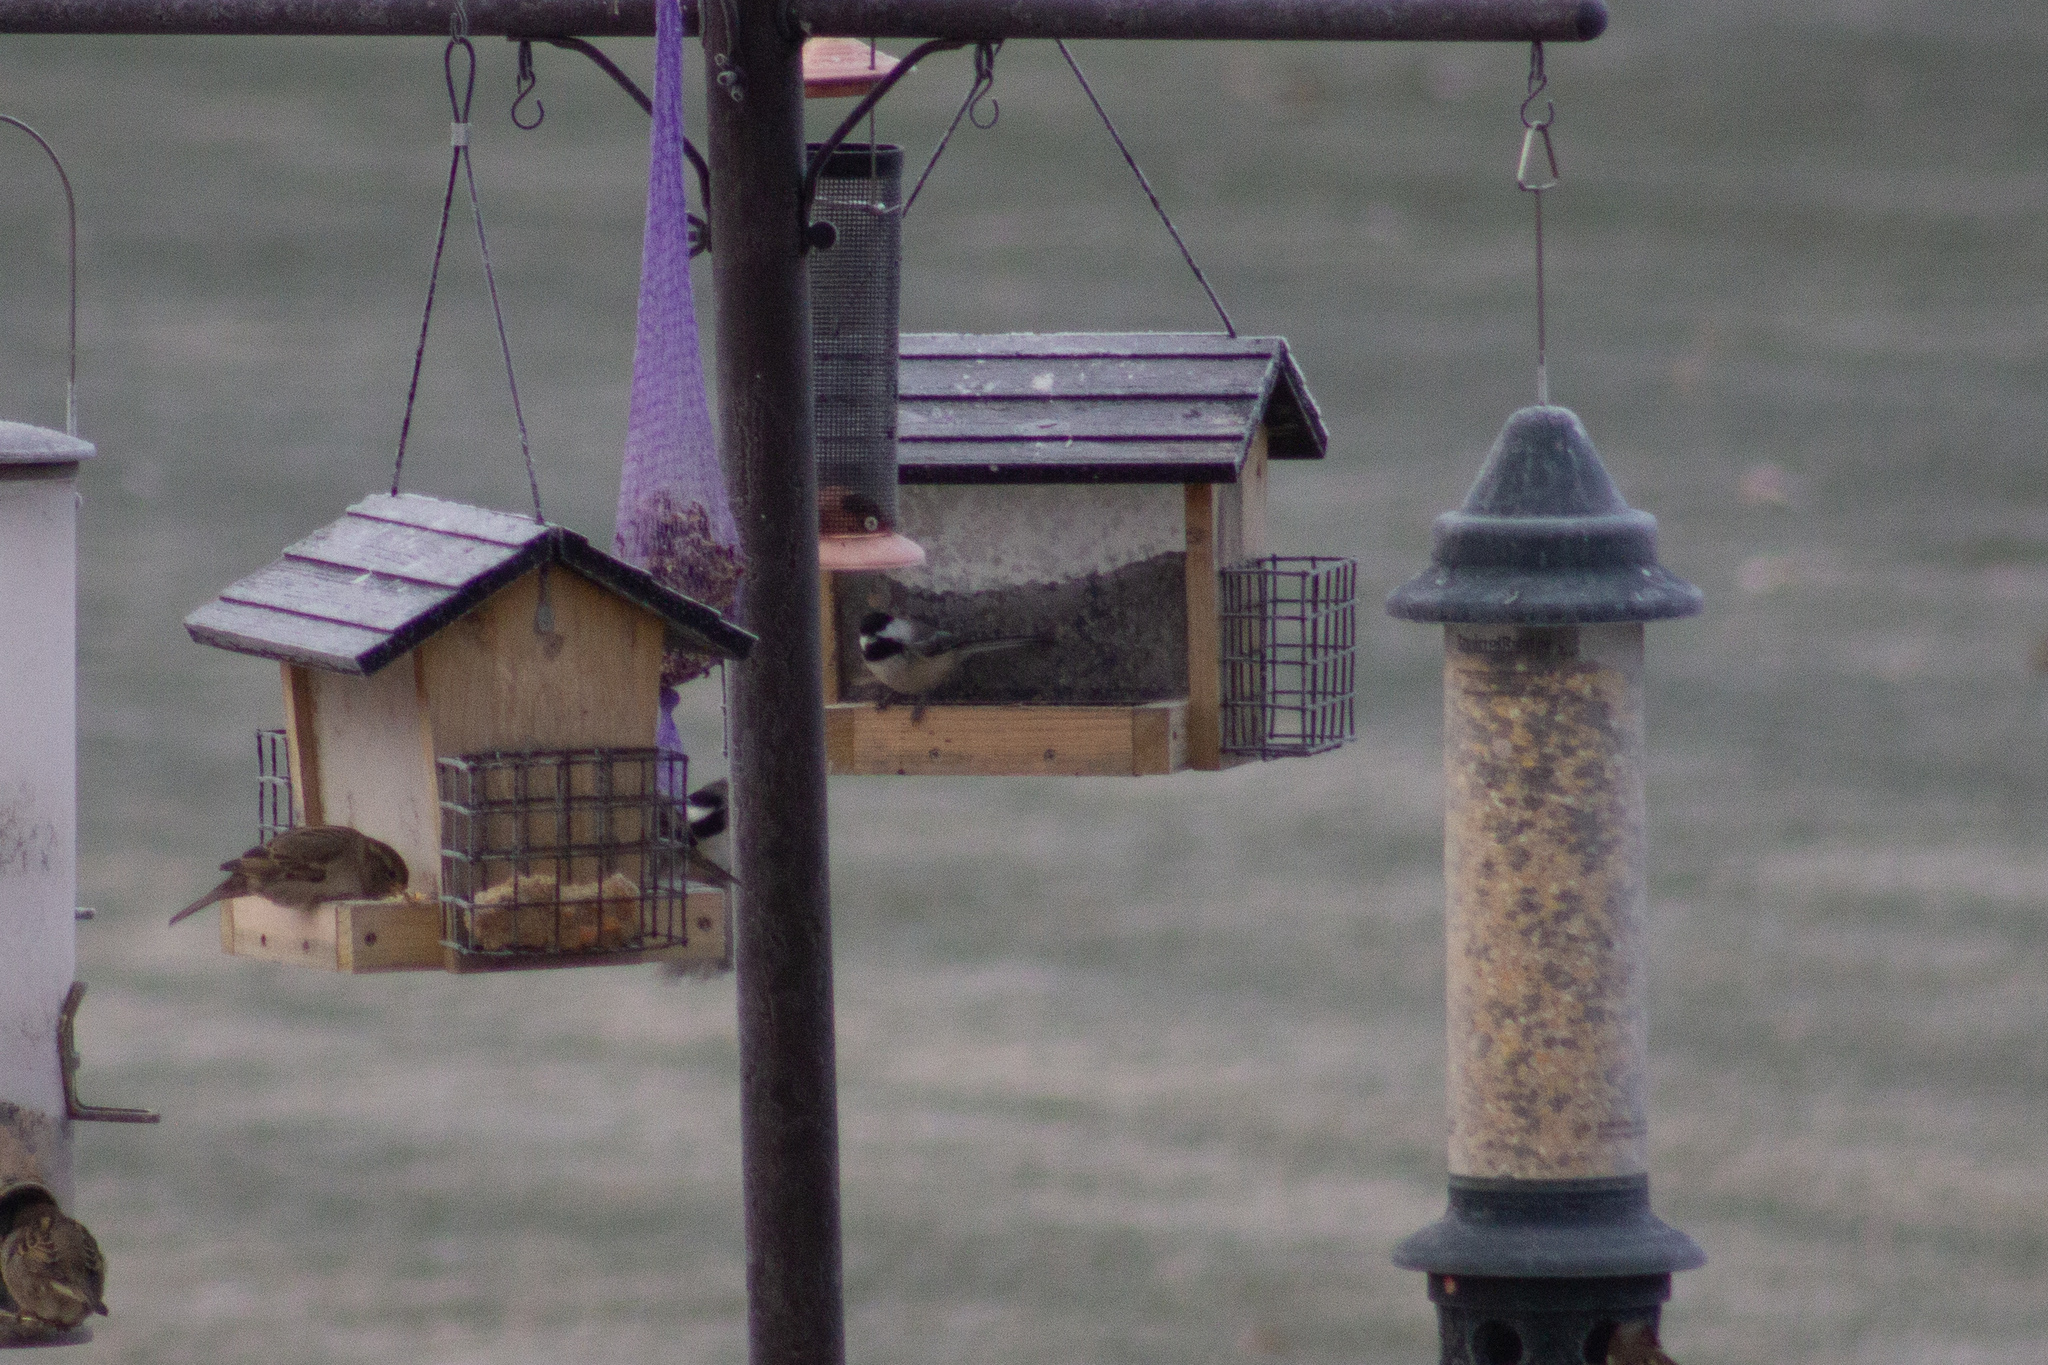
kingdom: Animalia
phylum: Chordata
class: Aves
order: Passeriformes
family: Paridae
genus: Poecile
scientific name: Poecile atricapillus
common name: Black-capped chickadee
